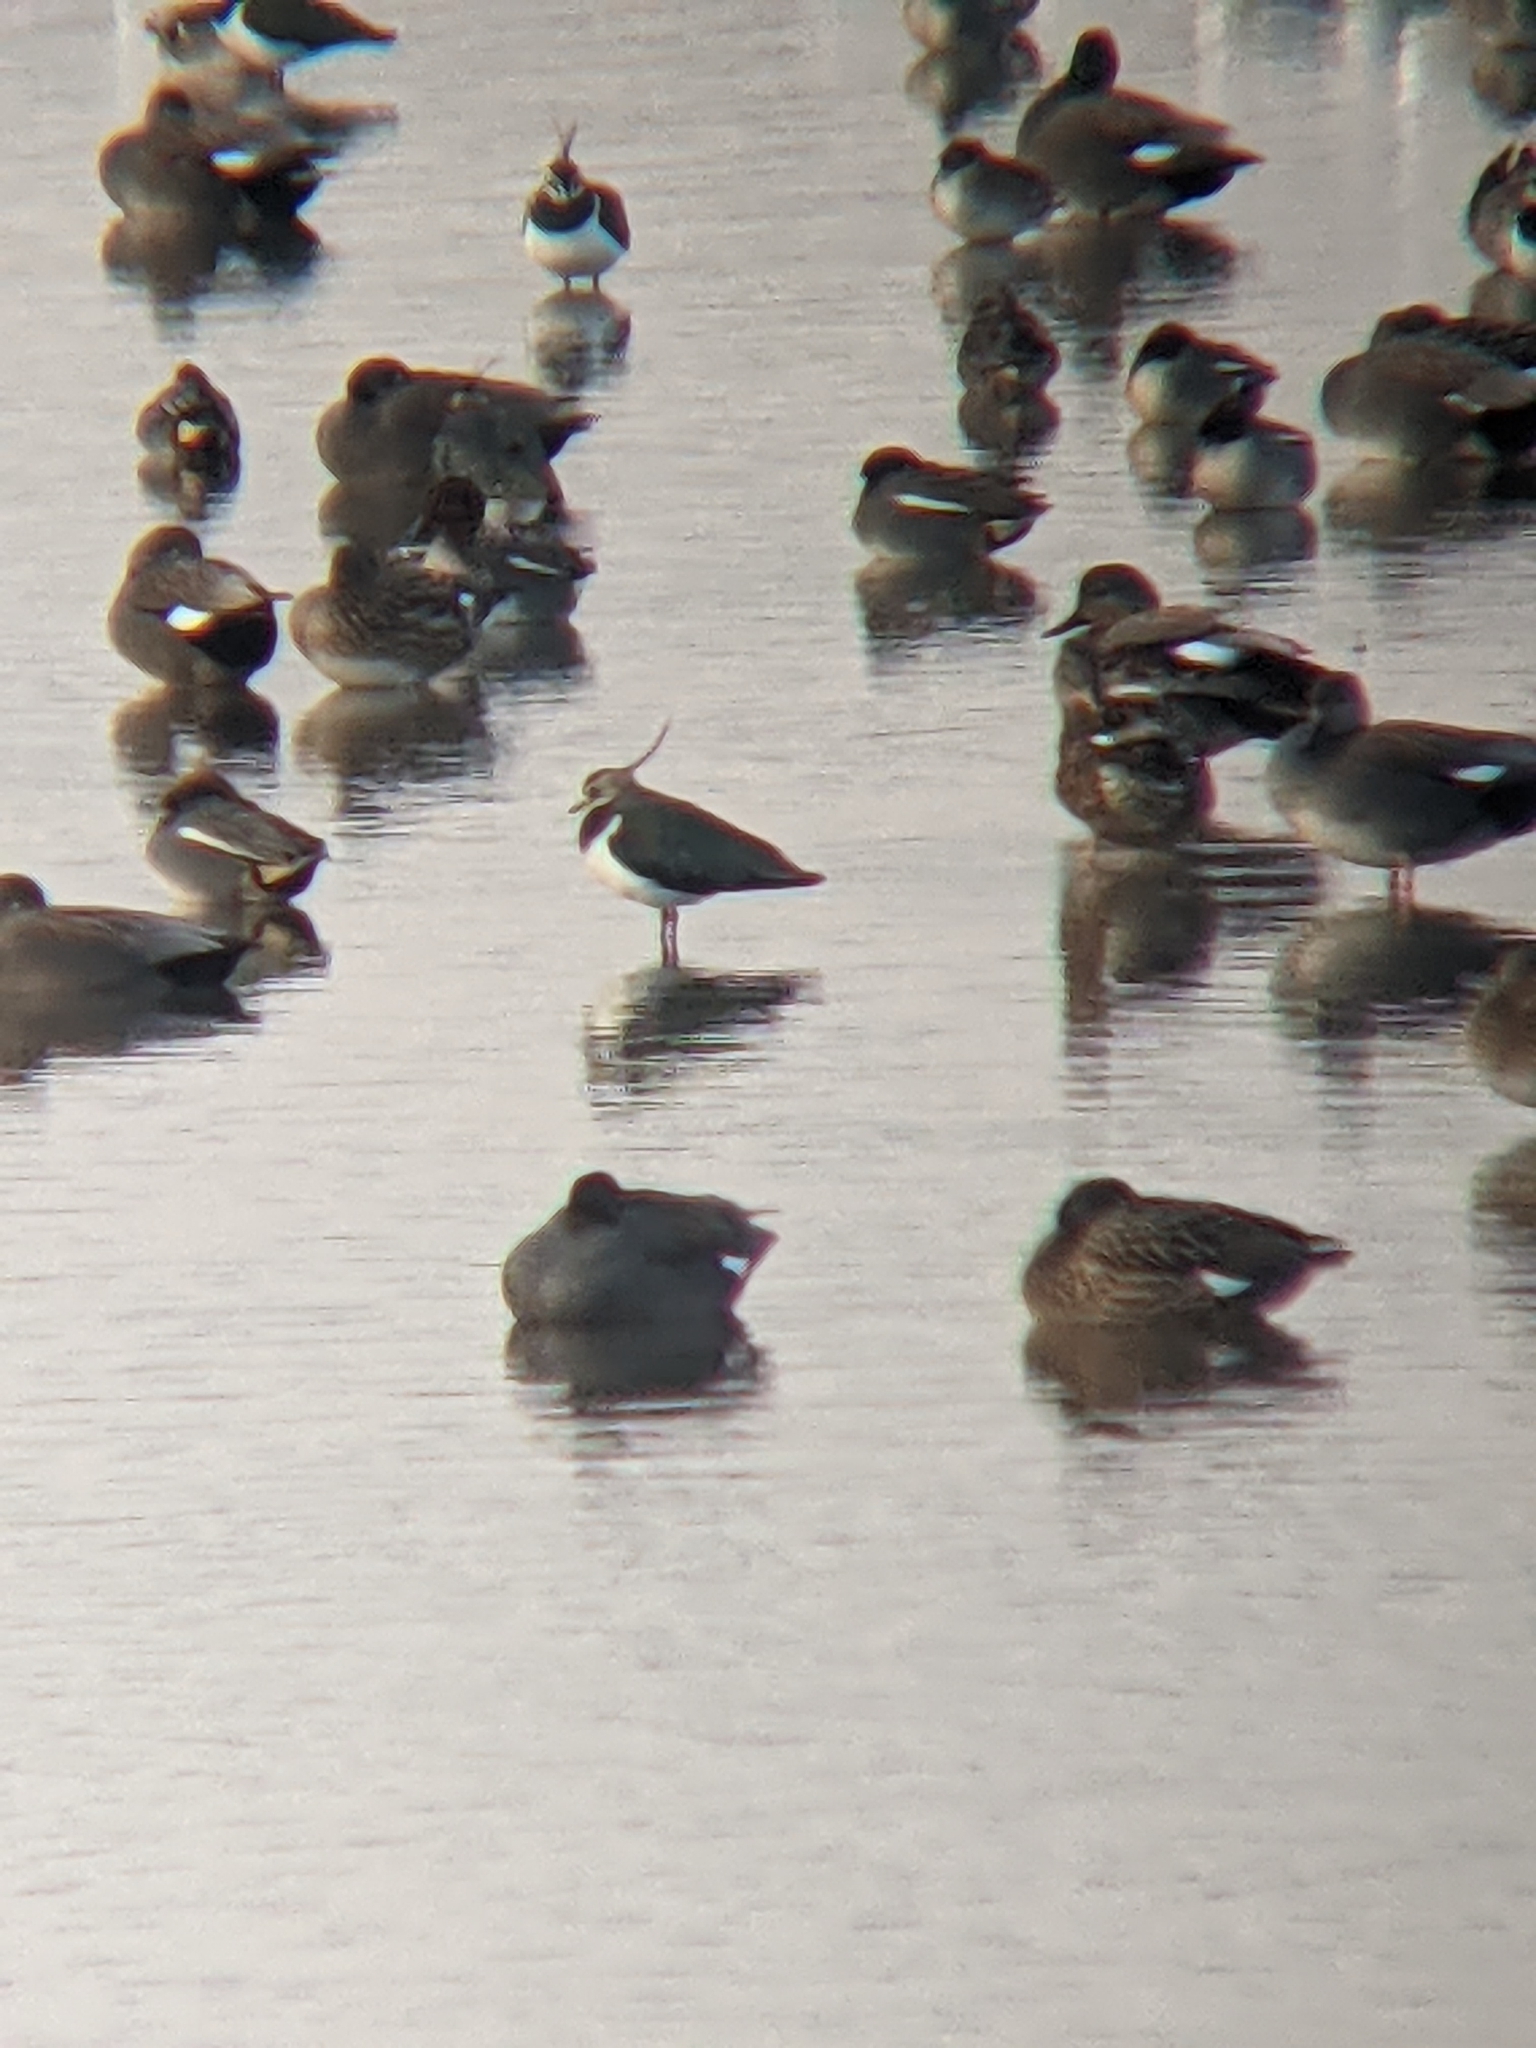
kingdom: Animalia
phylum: Chordata
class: Aves
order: Charadriiformes
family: Charadriidae
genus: Vanellus
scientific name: Vanellus vanellus
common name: Northern lapwing
